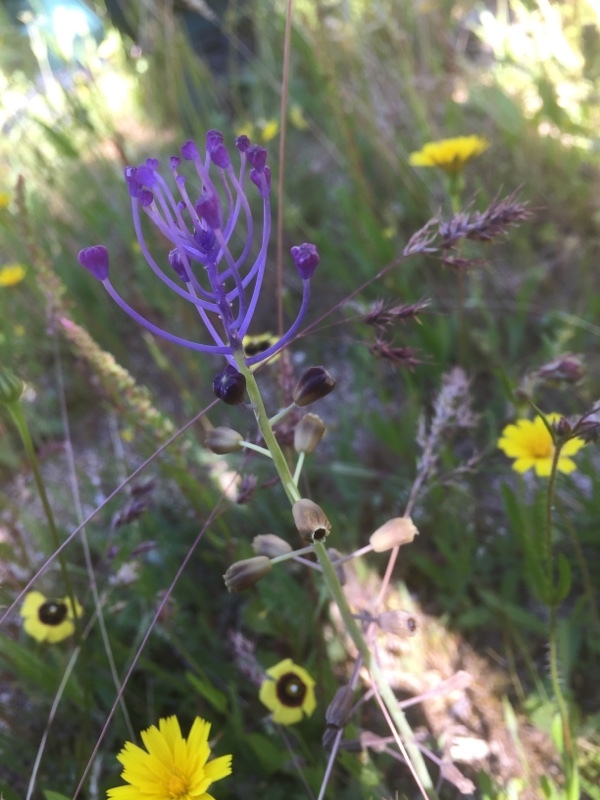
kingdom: Plantae
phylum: Tracheophyta
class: Liliopsida
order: Asparagales
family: Asparagaceae
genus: Muscari
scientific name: Muscari comosum
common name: Tassel hyacinth
